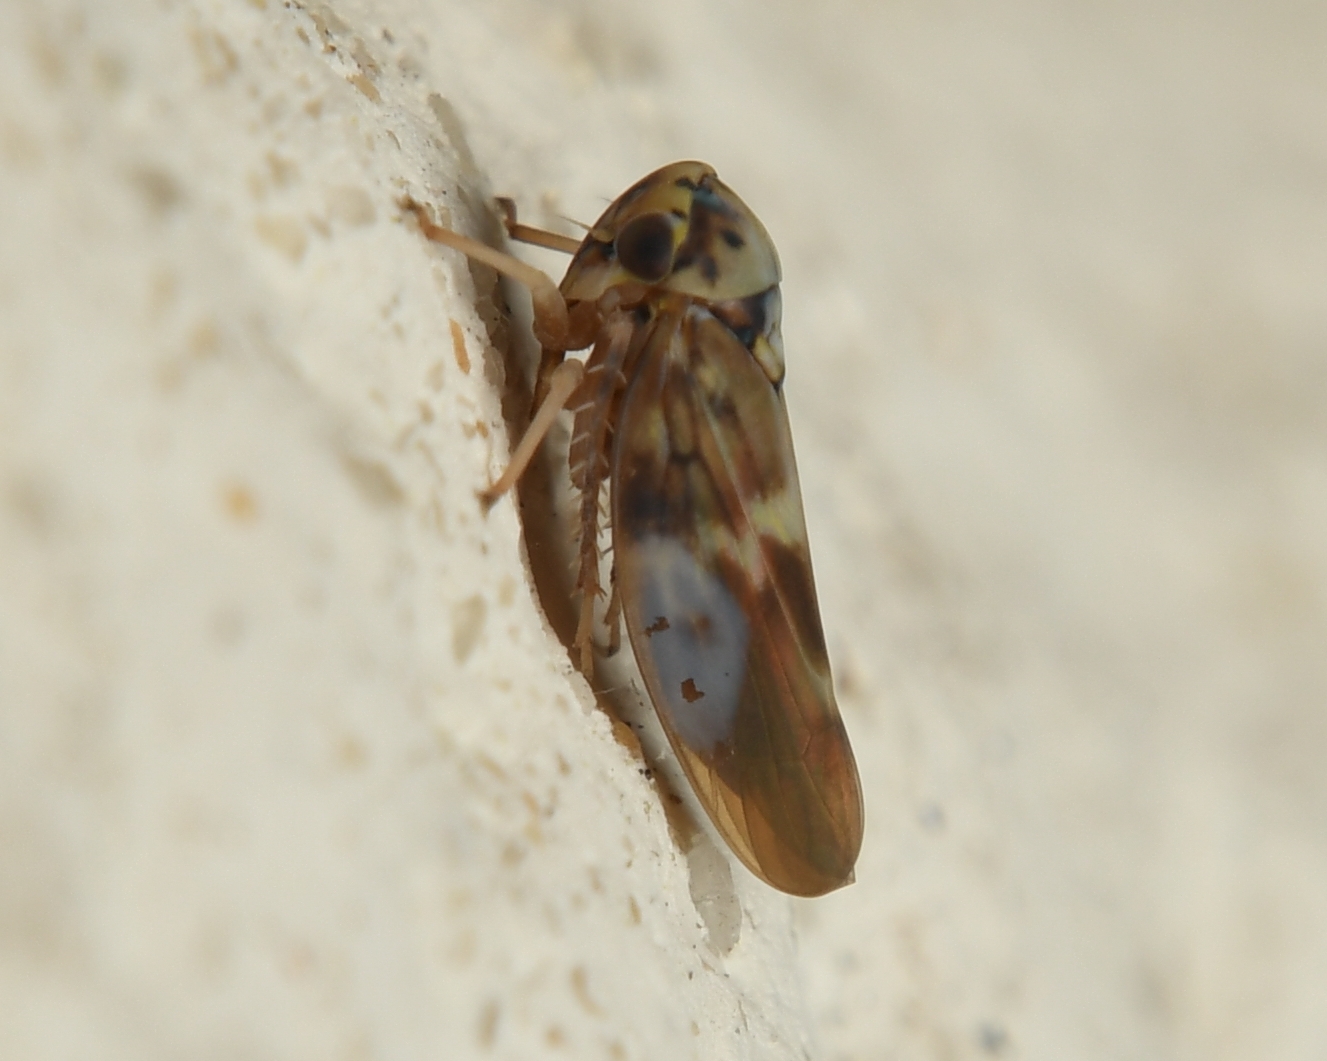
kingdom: Animalia
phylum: Arthropoda
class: Insecta
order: Hemiptera
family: Cicadellidae
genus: Agalliopsis
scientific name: Agalliopsis cervina
